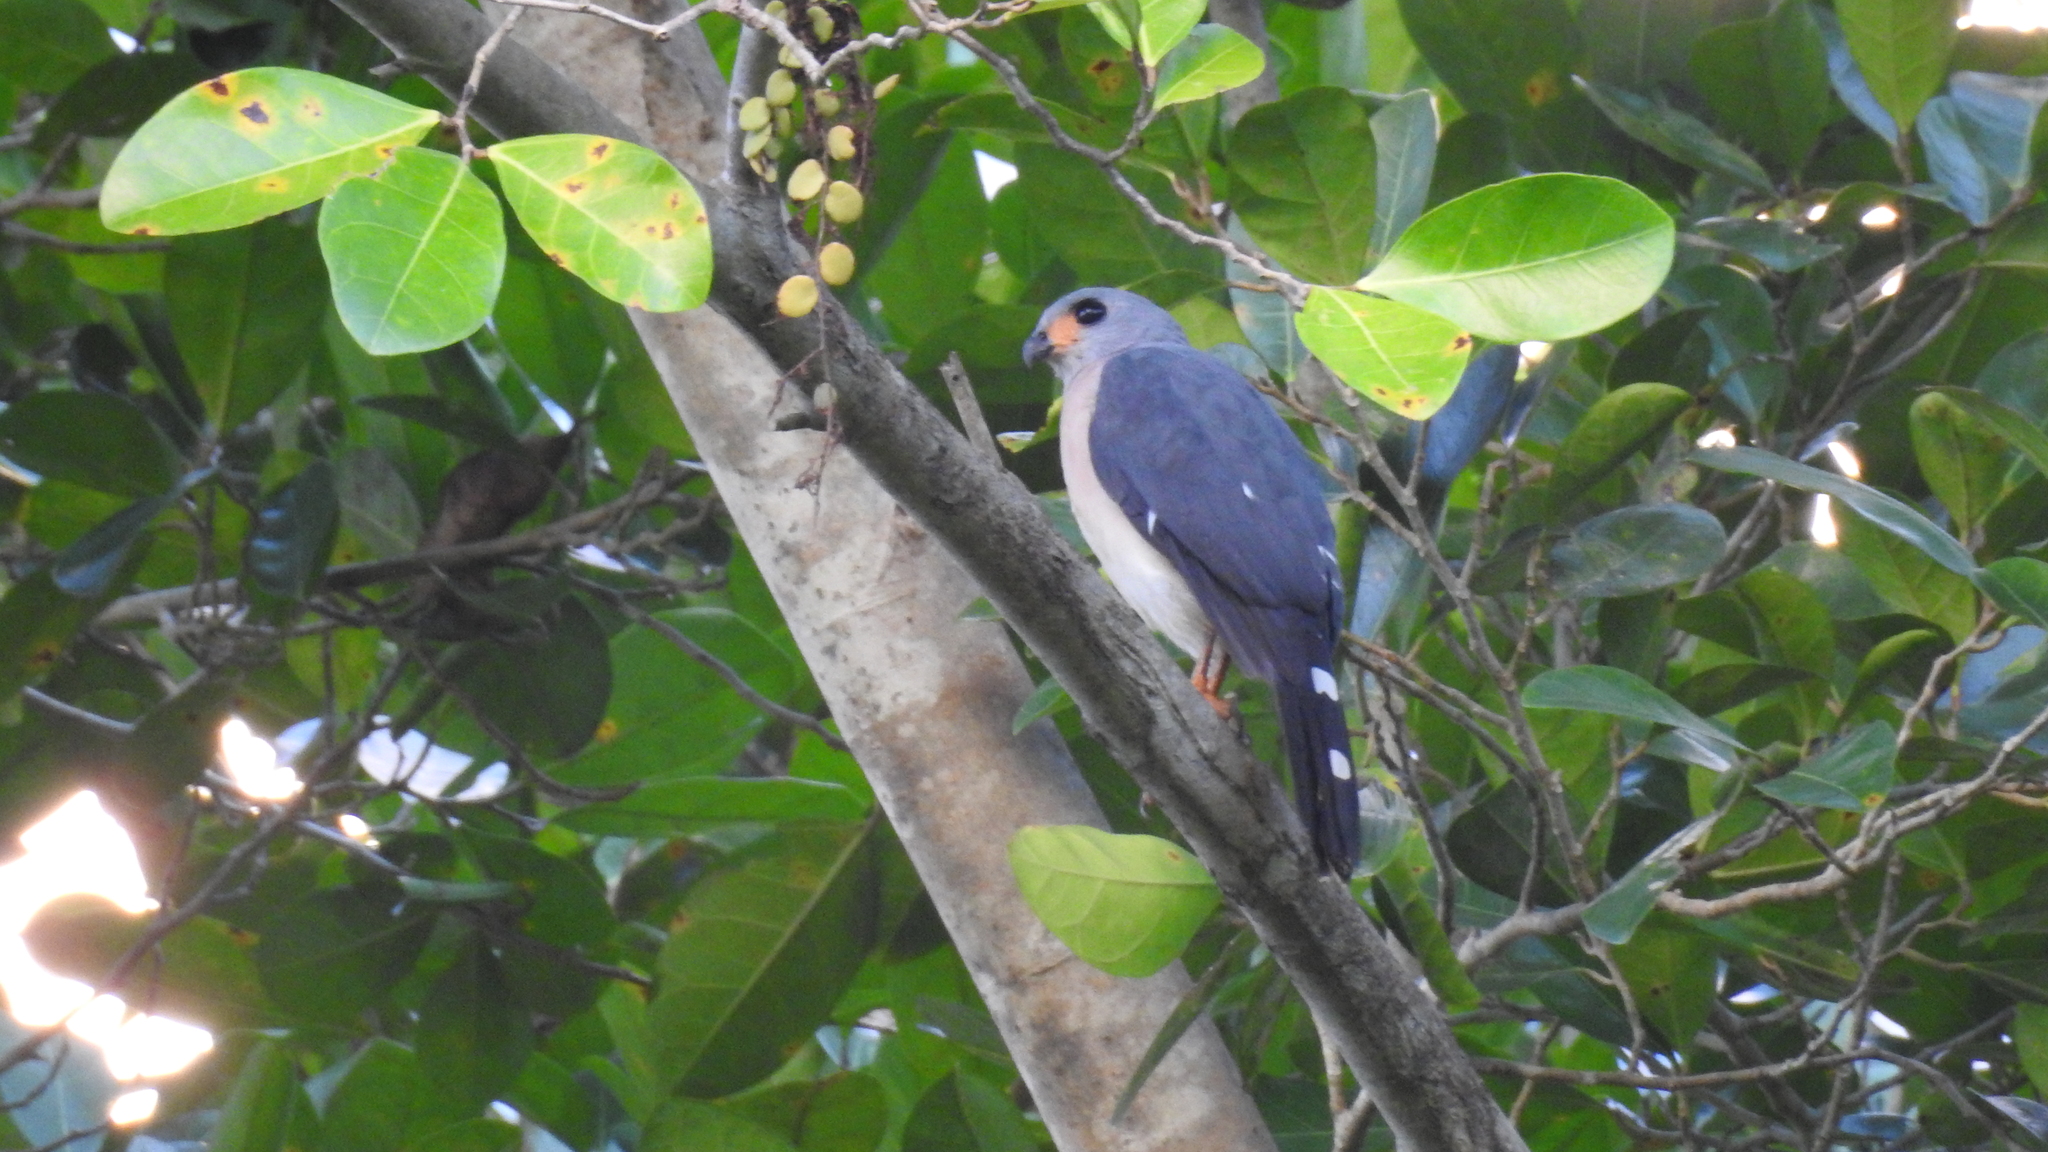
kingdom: Animalia
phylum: Chordata
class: Aves
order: Accipitriformes
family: Accipitridae
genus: Accipiter
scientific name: Accipiter trinotatus
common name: Spot-tailed sparrowhawk
